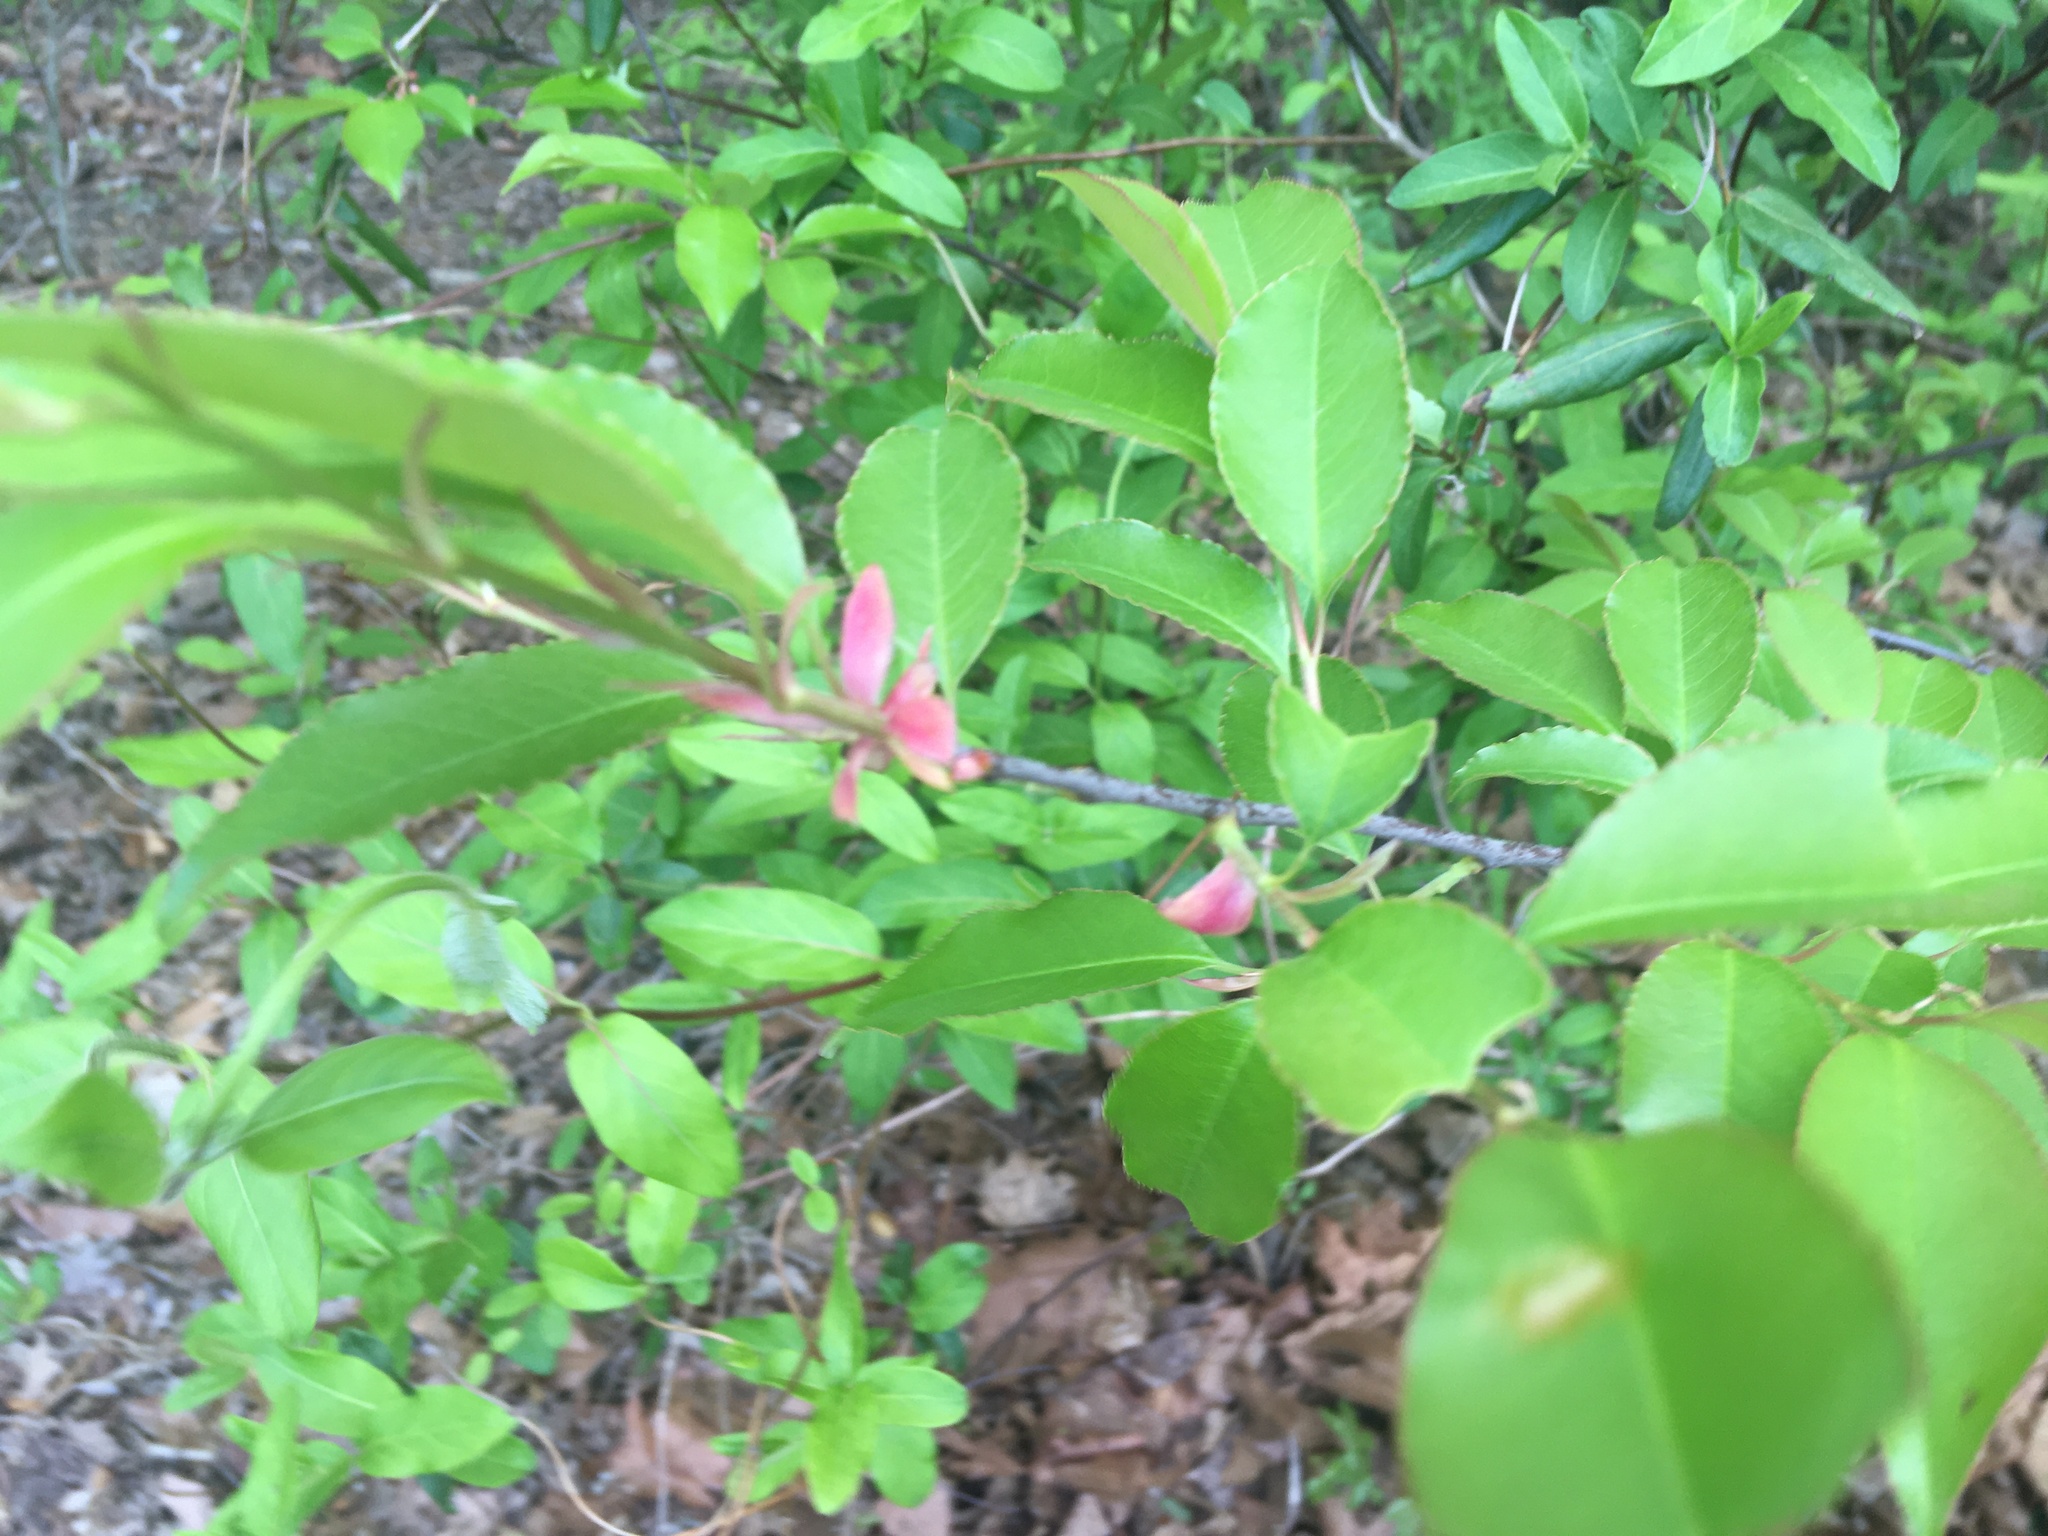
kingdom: Plantae
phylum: Tracheophyta
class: Magnoliopsida
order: Rosales
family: Rosaceae
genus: Prunus
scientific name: Prunus serotina
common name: Black cherry
